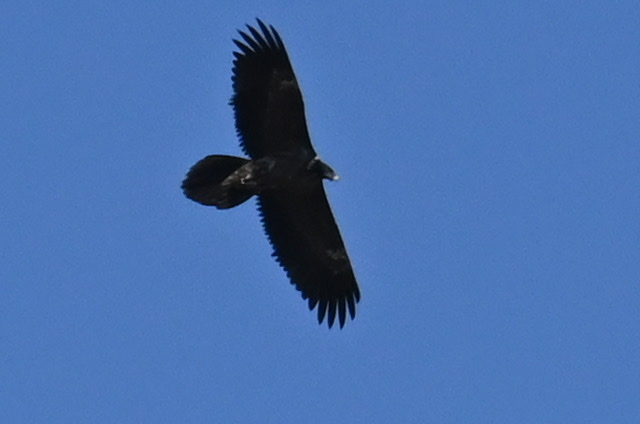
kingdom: Animalia
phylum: Chordata
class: Aves
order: Accipitriformes
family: Accipitridae
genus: Gypaetus
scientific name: Gypaetus barbatus
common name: Bearded vulture
